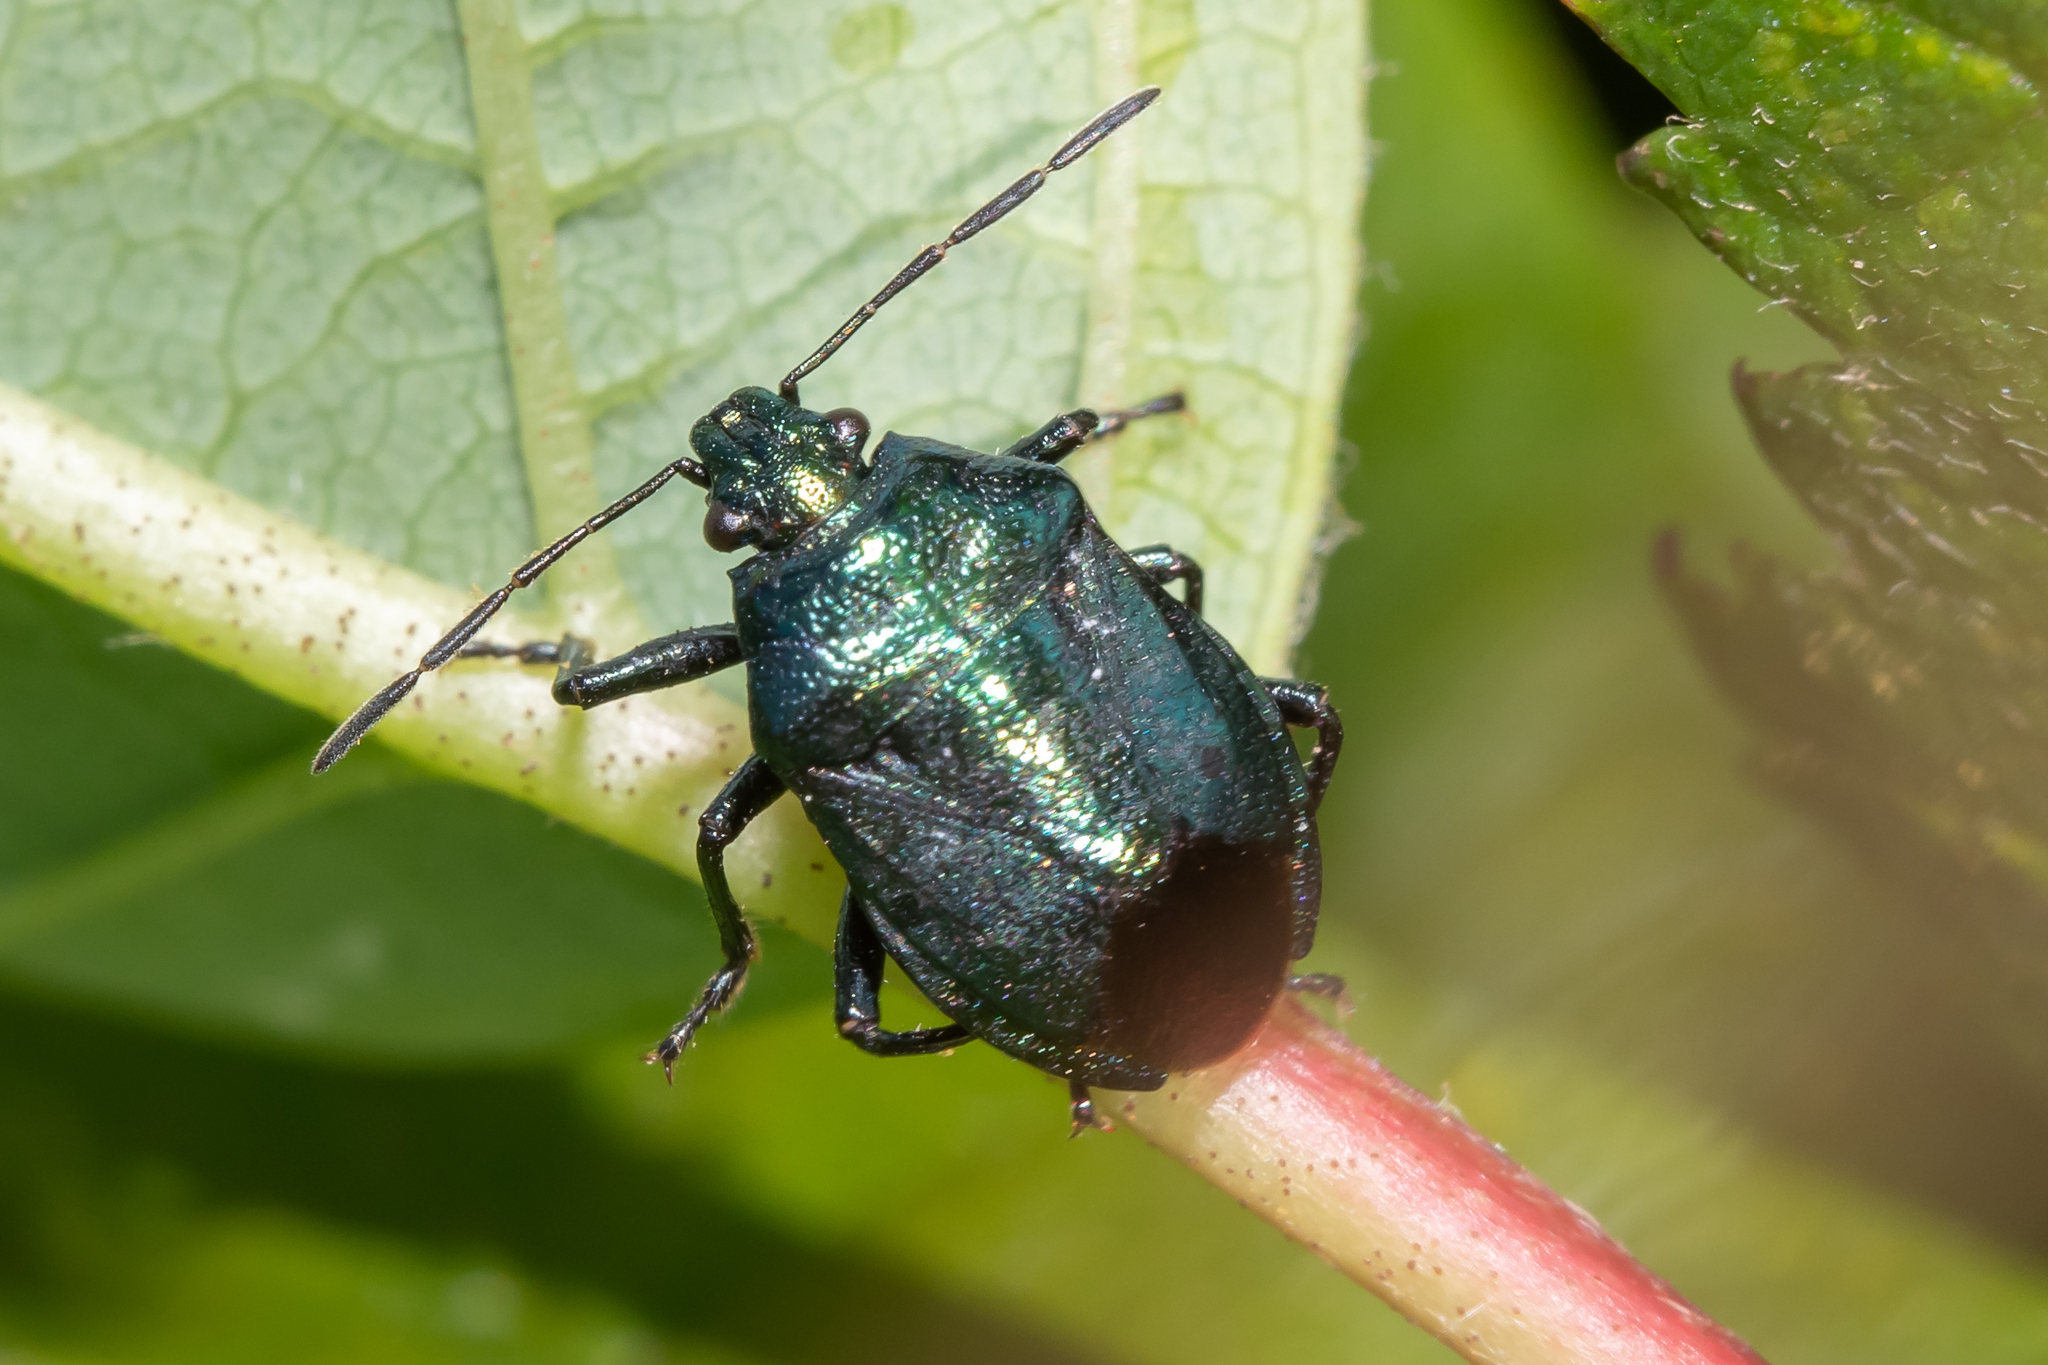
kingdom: Animalia
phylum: Arthropoda
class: Insecta
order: Hemiptera
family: Pentatomidae
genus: Zicrona
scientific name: Zicrona caerulea
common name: Blue shieldbug
